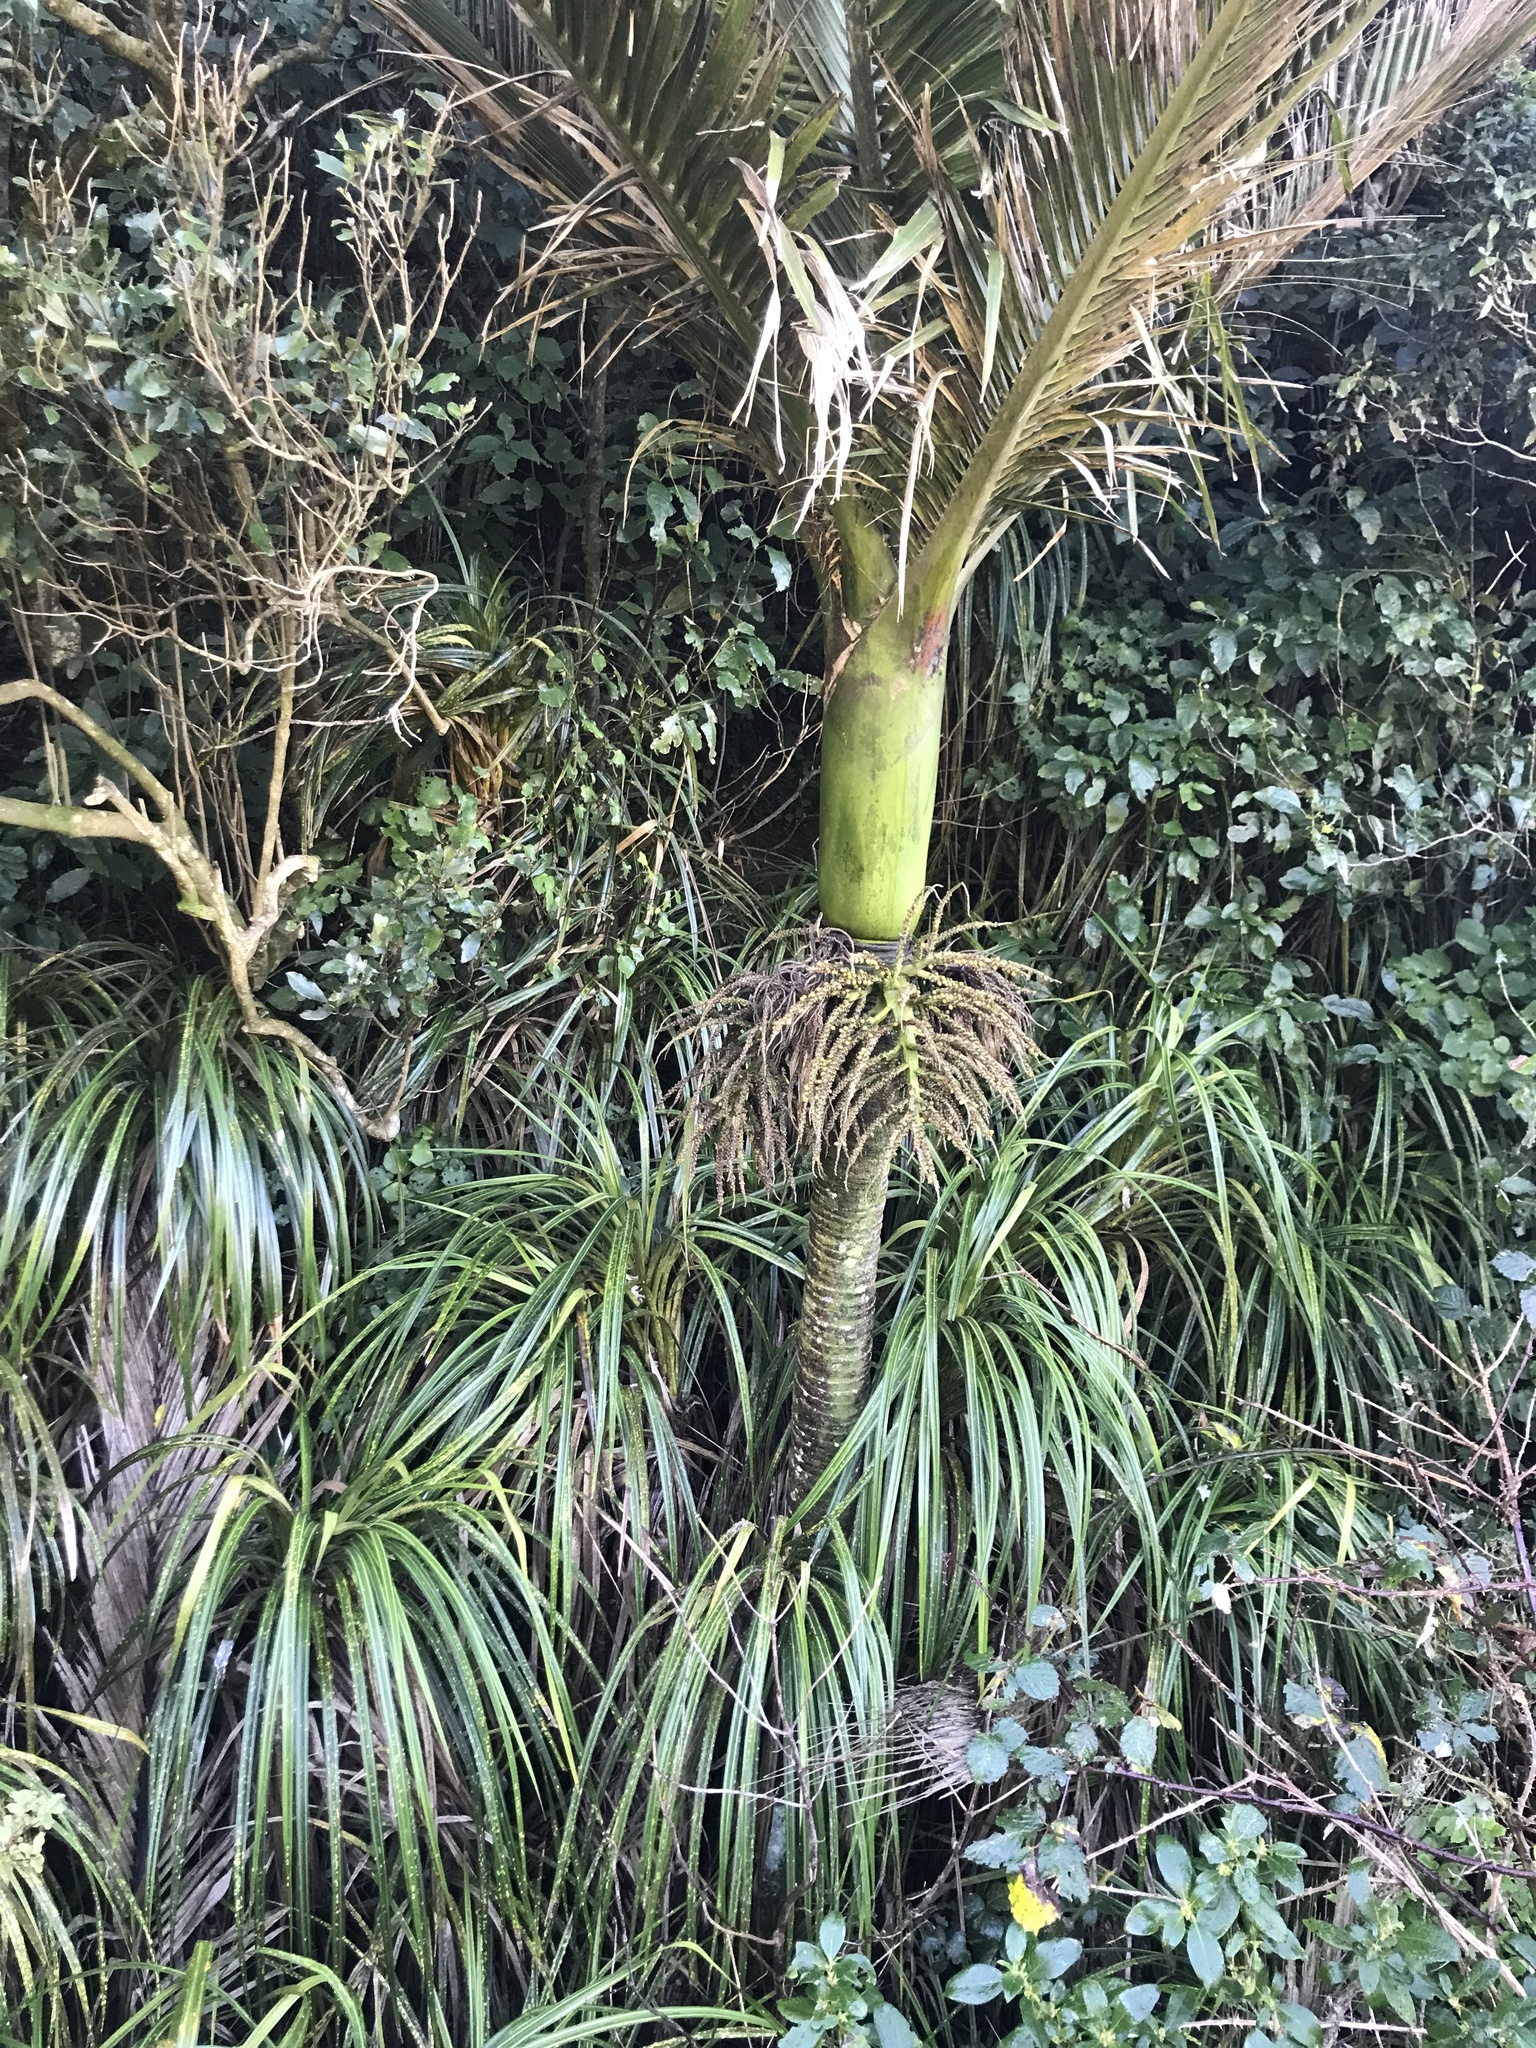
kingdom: Plantae
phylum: Tracheophyta
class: Liliopsida
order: Arecales
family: Arecaceae
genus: Rhopalostylis
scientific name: Rhopalostylis sapida
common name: Feather-duster palm
